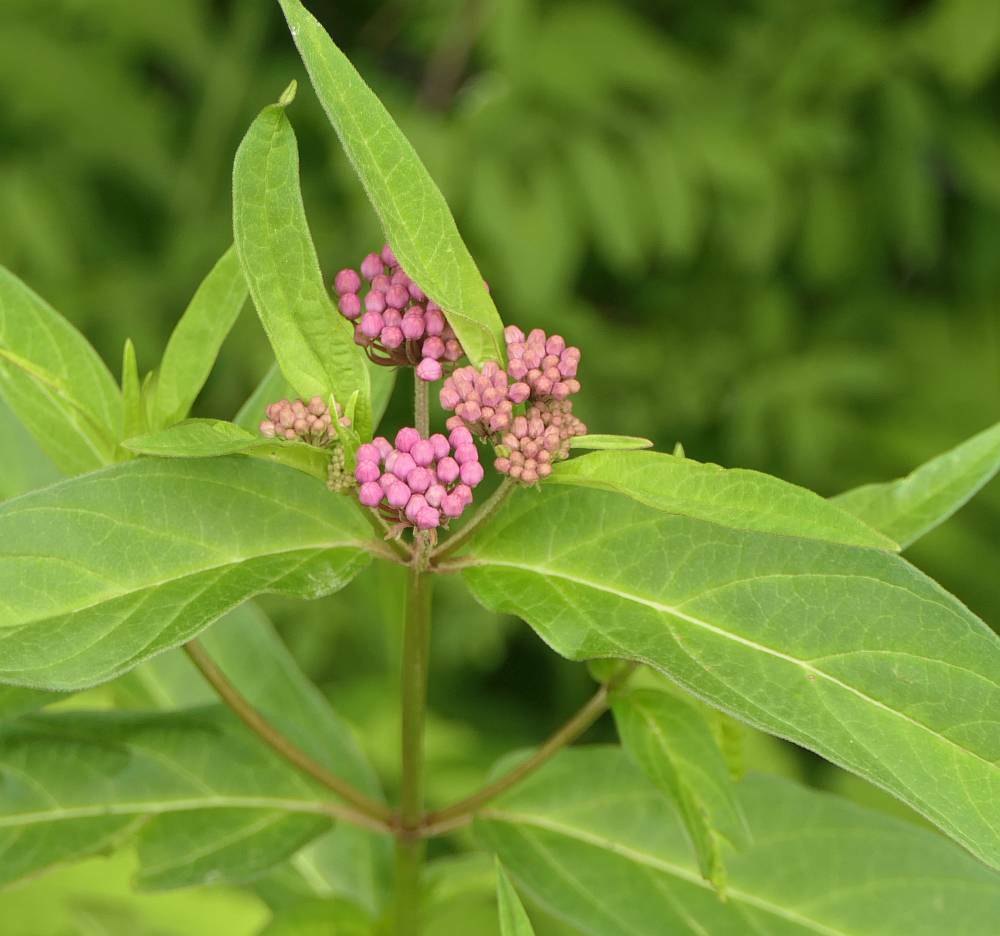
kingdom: Plantae
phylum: Tracheophyta
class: Magnoliopsida
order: Gentianales
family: Apocynaceae
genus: Asclepias
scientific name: Asclepias incarnata
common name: Swamp milkweed
